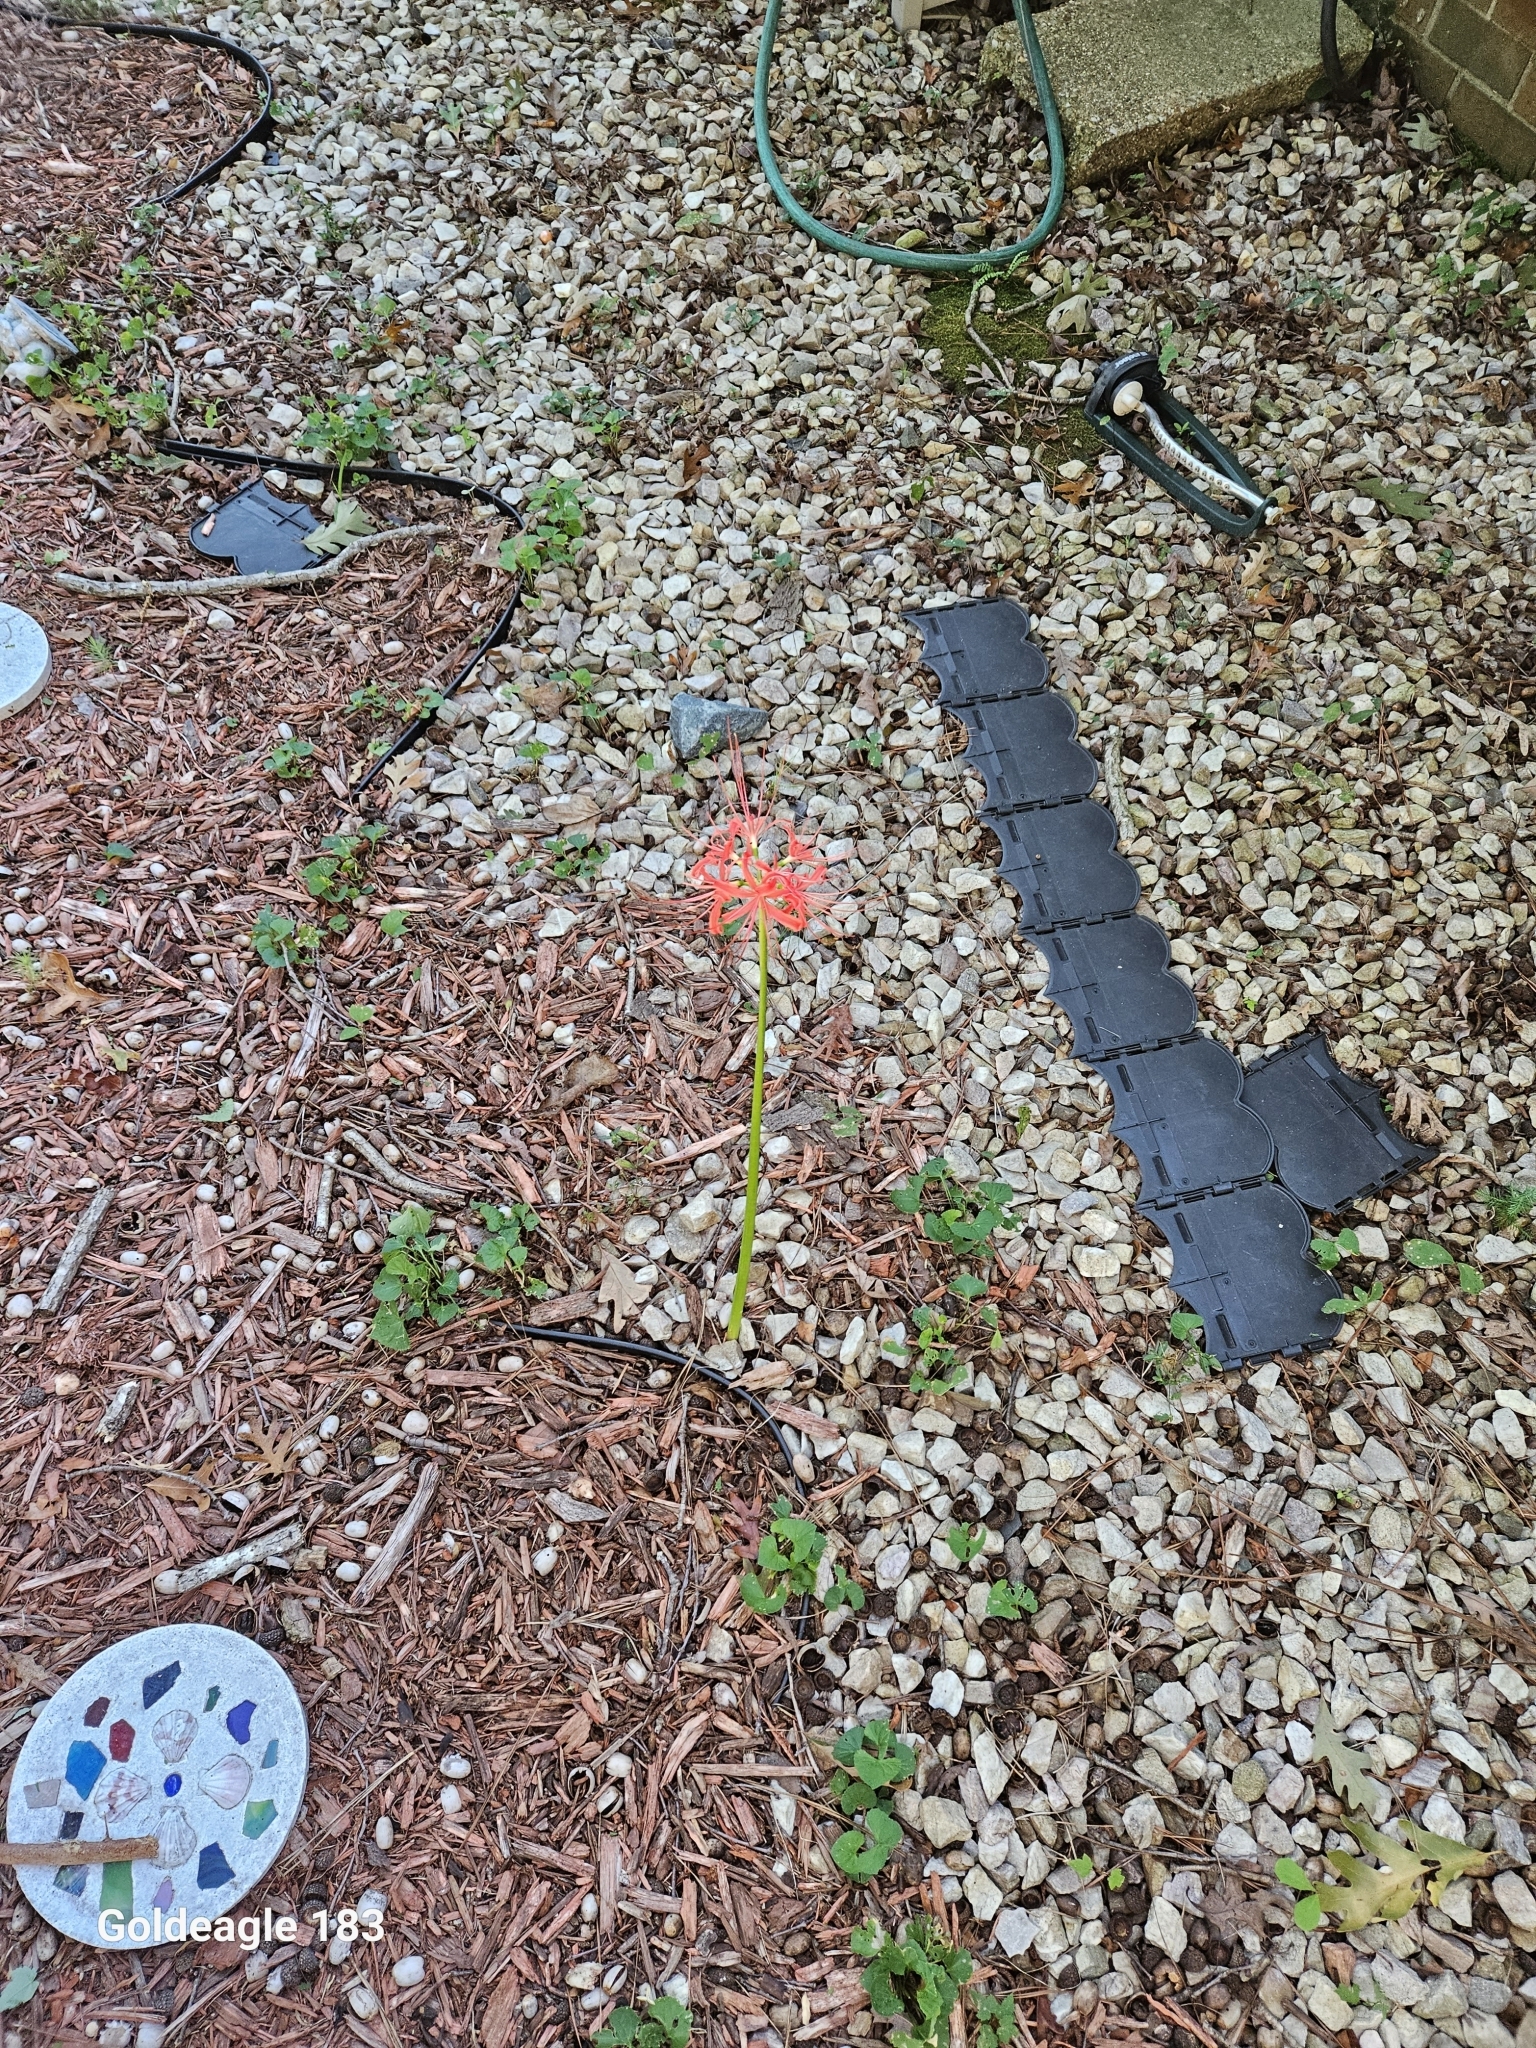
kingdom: Plantae
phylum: Tracheophyta
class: Liliopsida
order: Asparagales
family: Amaryllidaceae
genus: Lycoris
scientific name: Lycoris radiata
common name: Red spider lily
